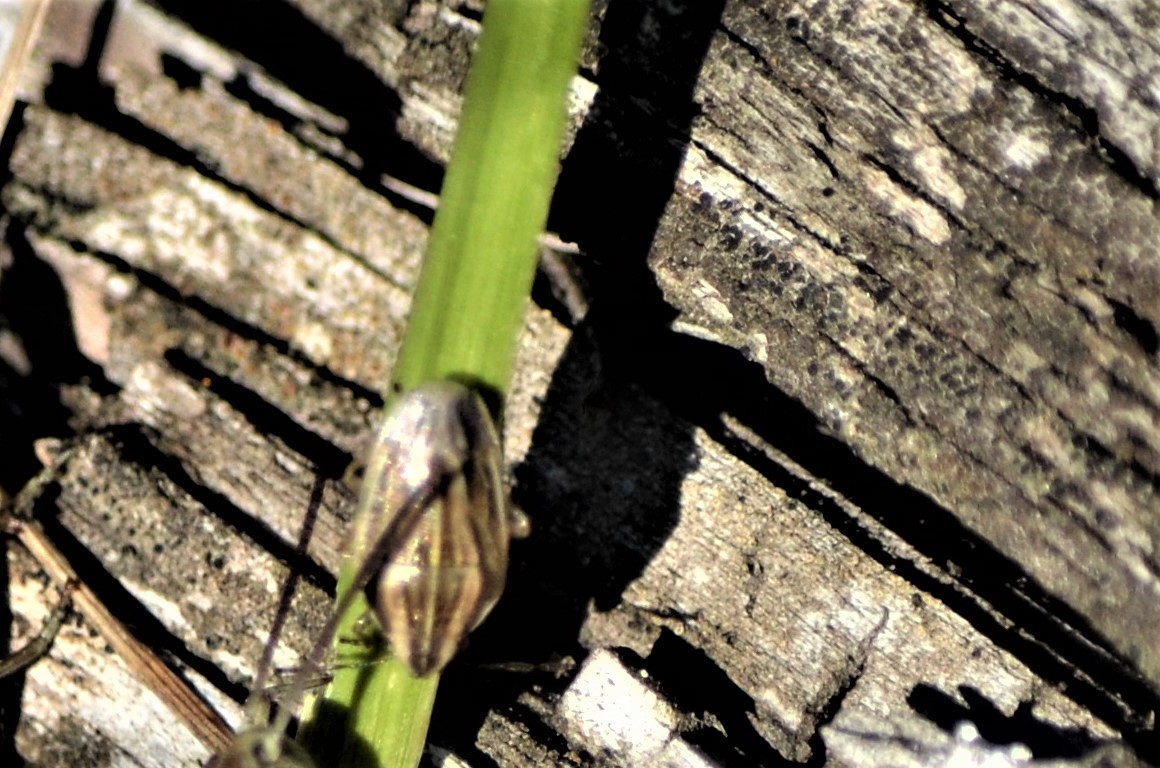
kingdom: Animalia
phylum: Arthropoda
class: Insecta
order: Hemiptera
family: Pentatomidae
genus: Aelia
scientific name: Aelia acuminata
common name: Bishop's mitre
